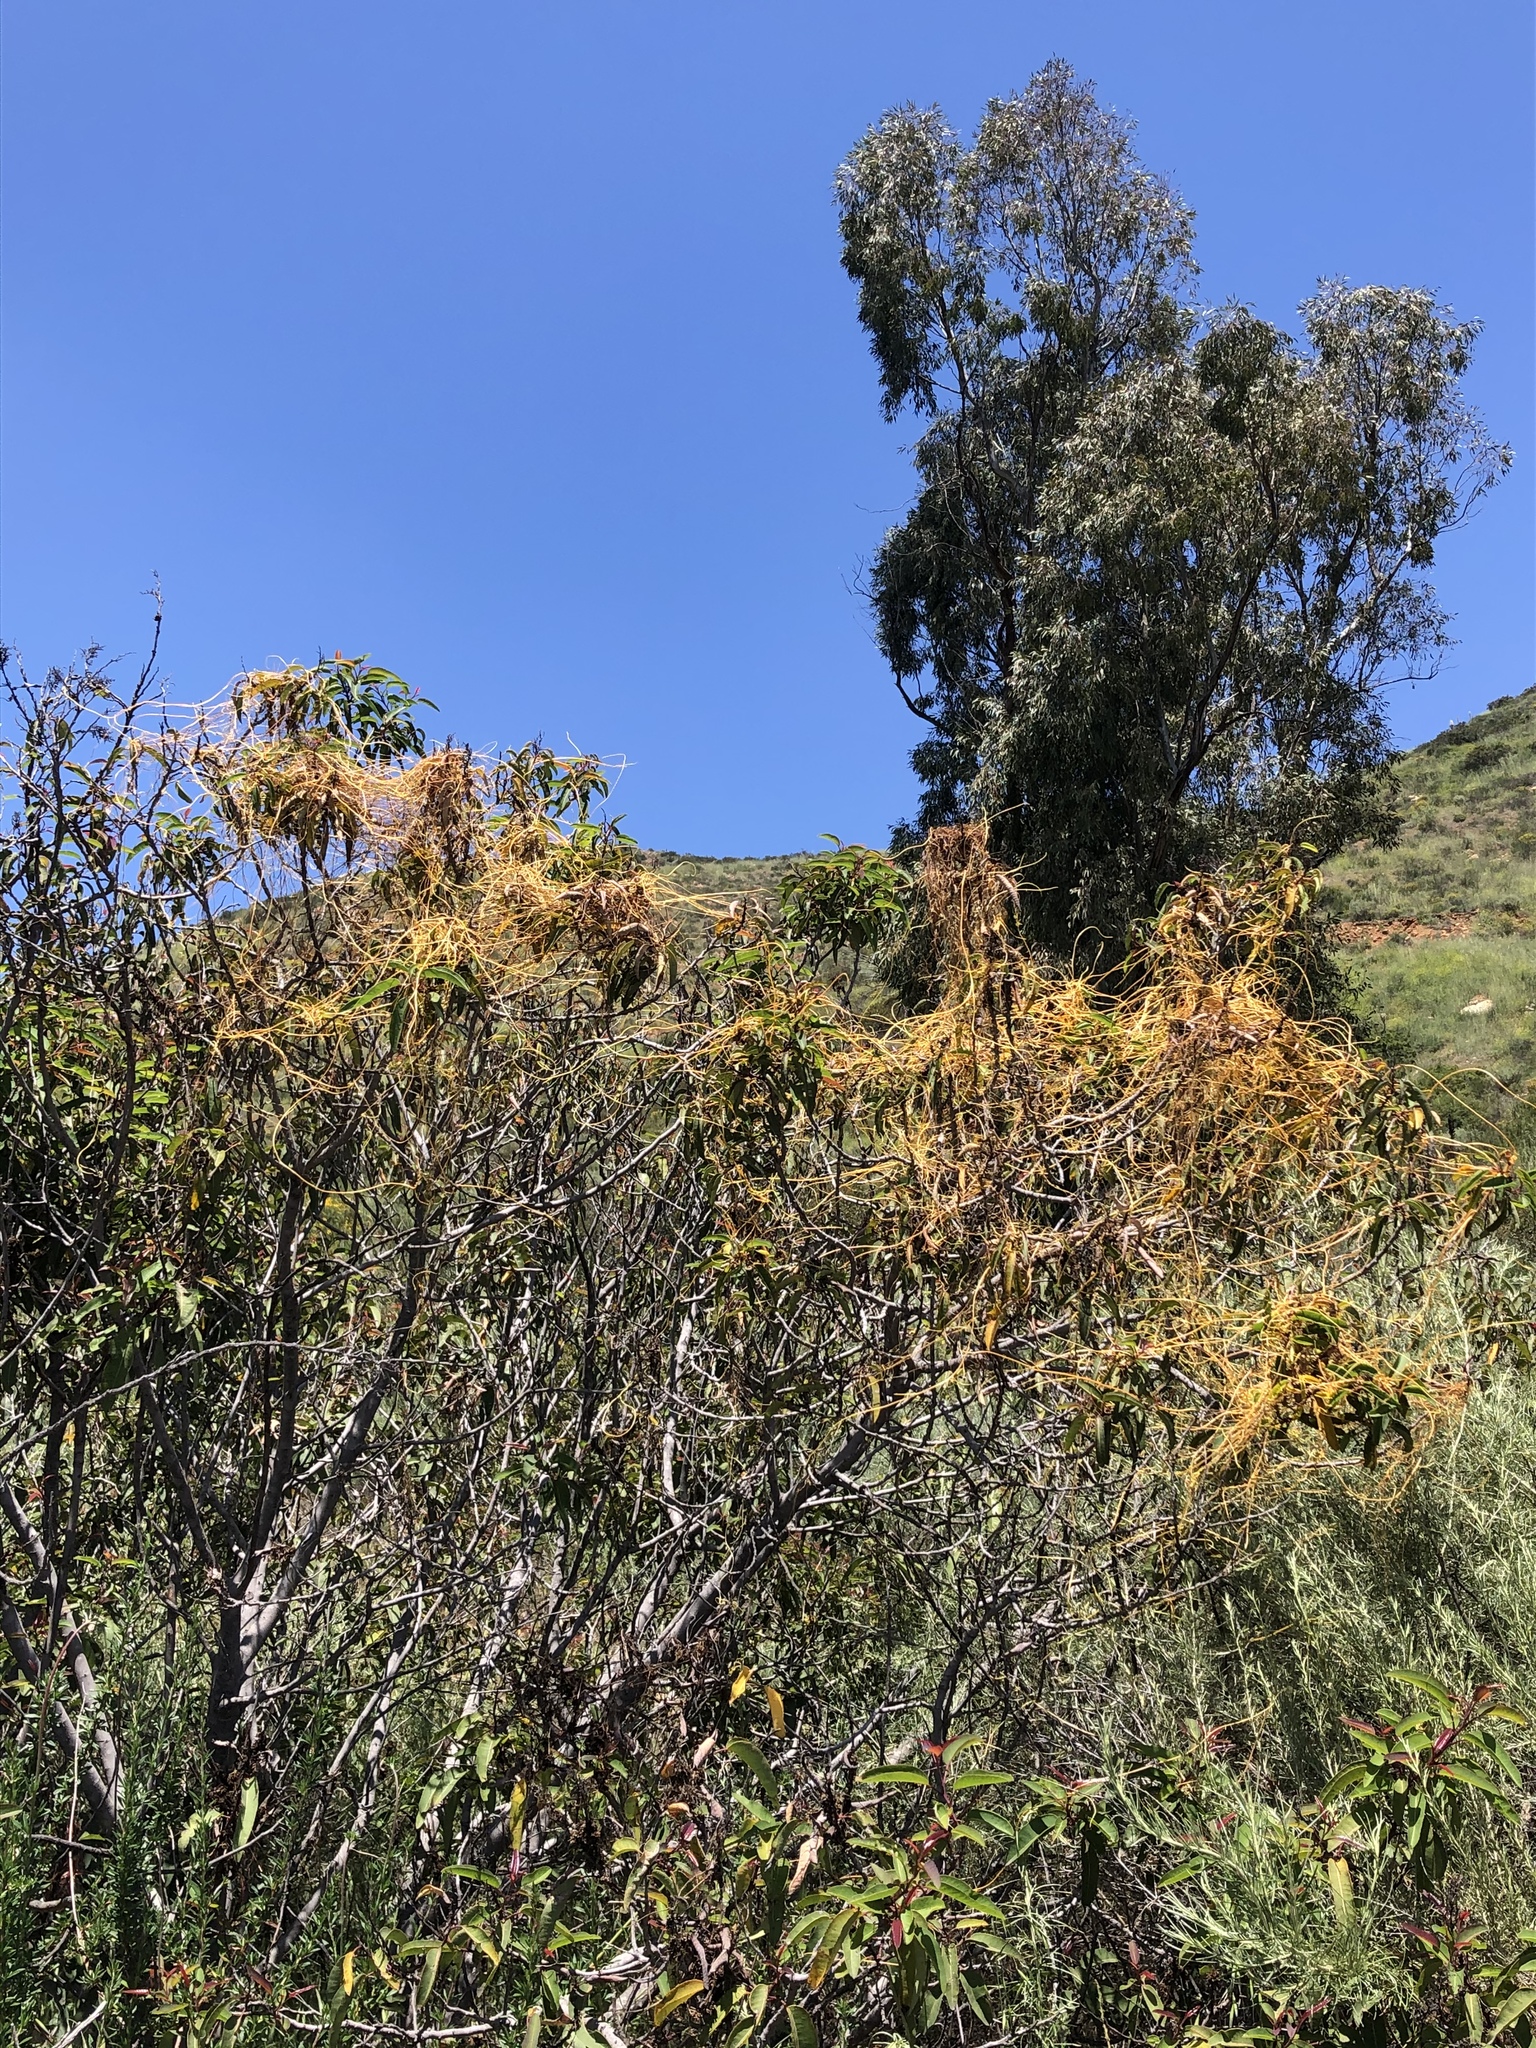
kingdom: Plantae
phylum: Tracheophyta
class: Magnoliopsida
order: Solanales
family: Convolvulaceae
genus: Cuscuta
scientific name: Cuscuta subinclusa
